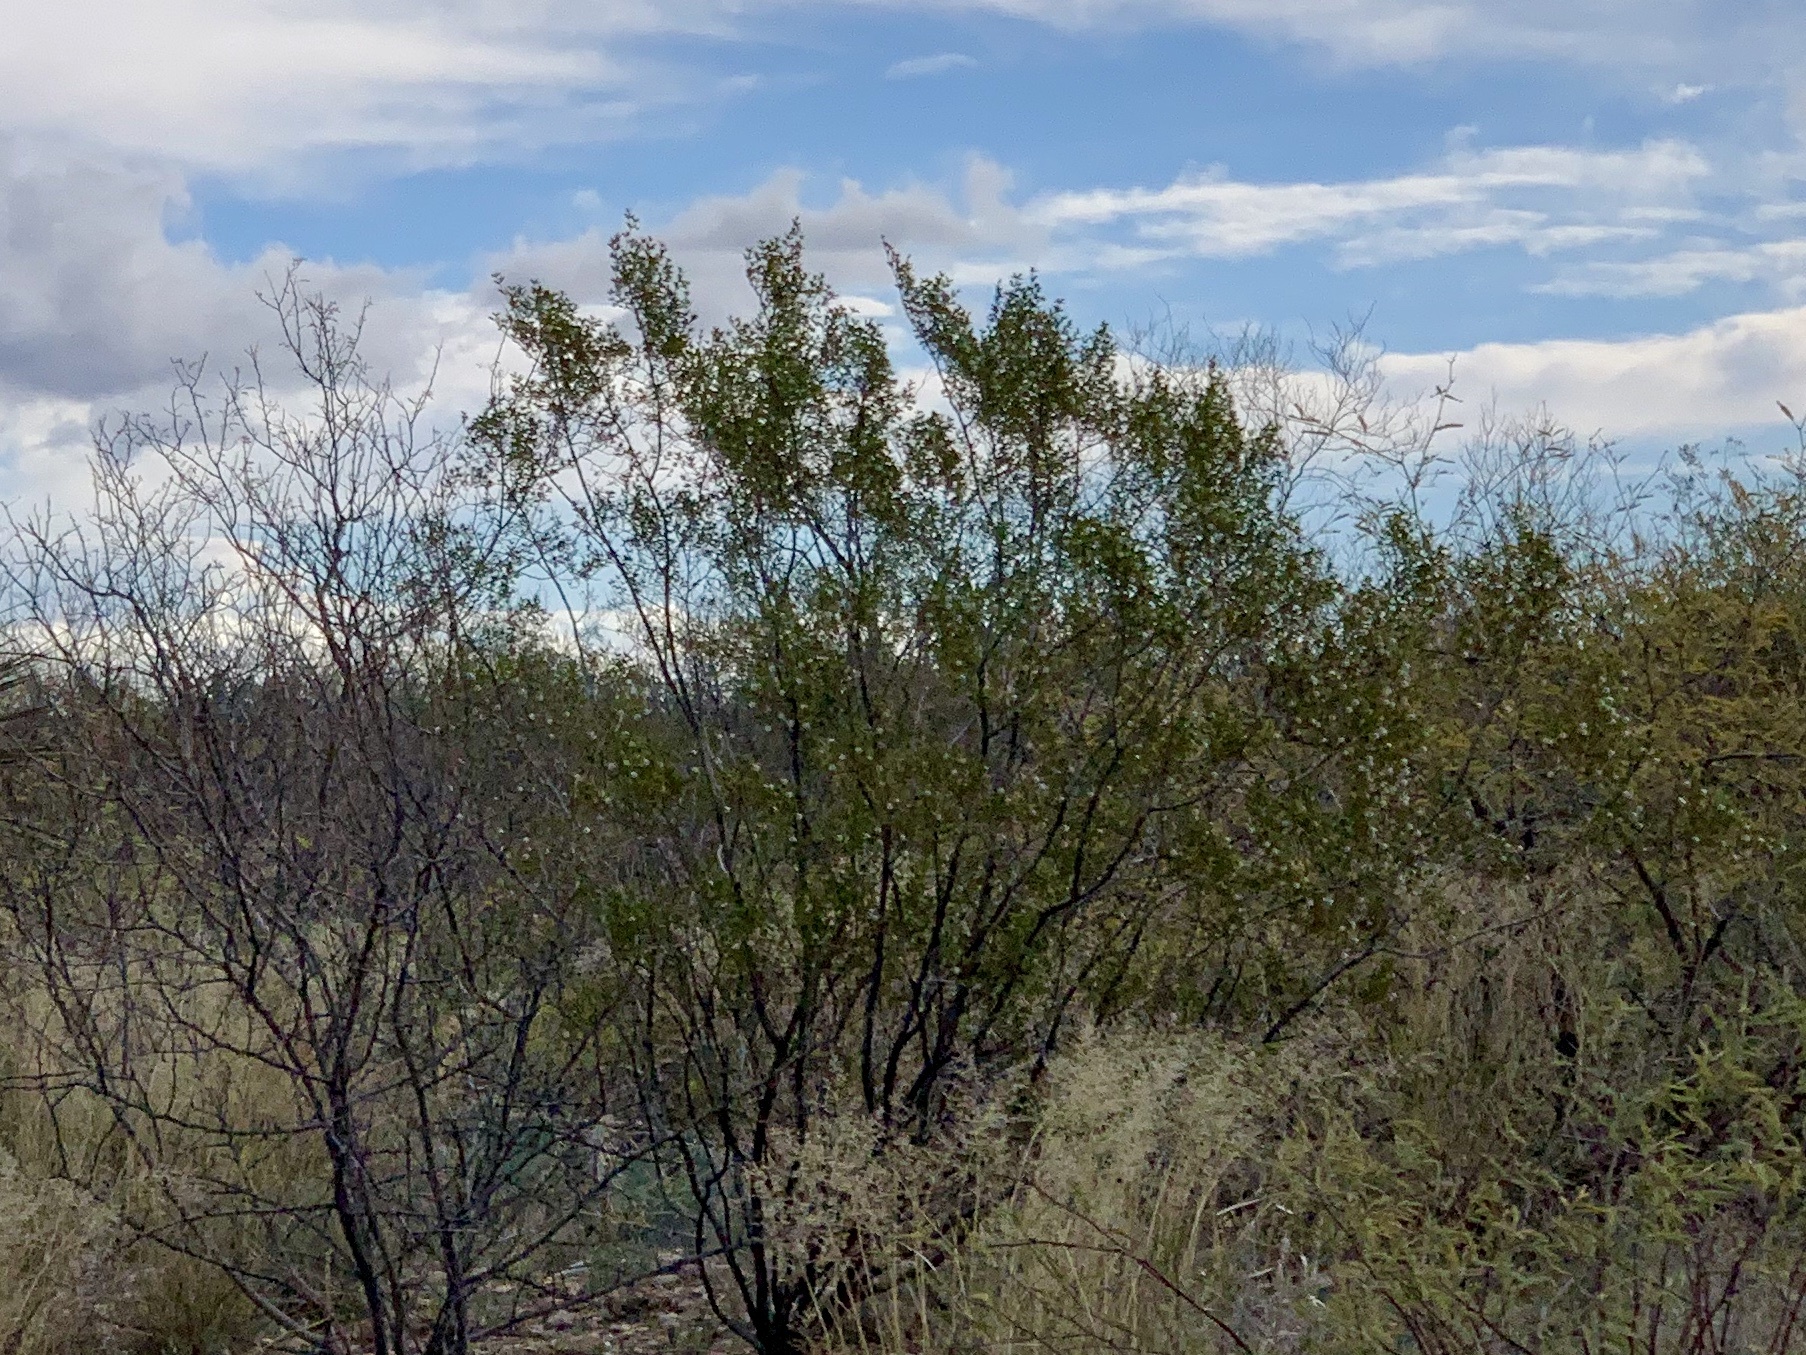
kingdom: Plantae
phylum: Tracheophyta
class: Magnoliopsida
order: Zygophyllales
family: Zygophyllaceae
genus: Larrea
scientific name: Larrea tridentata
